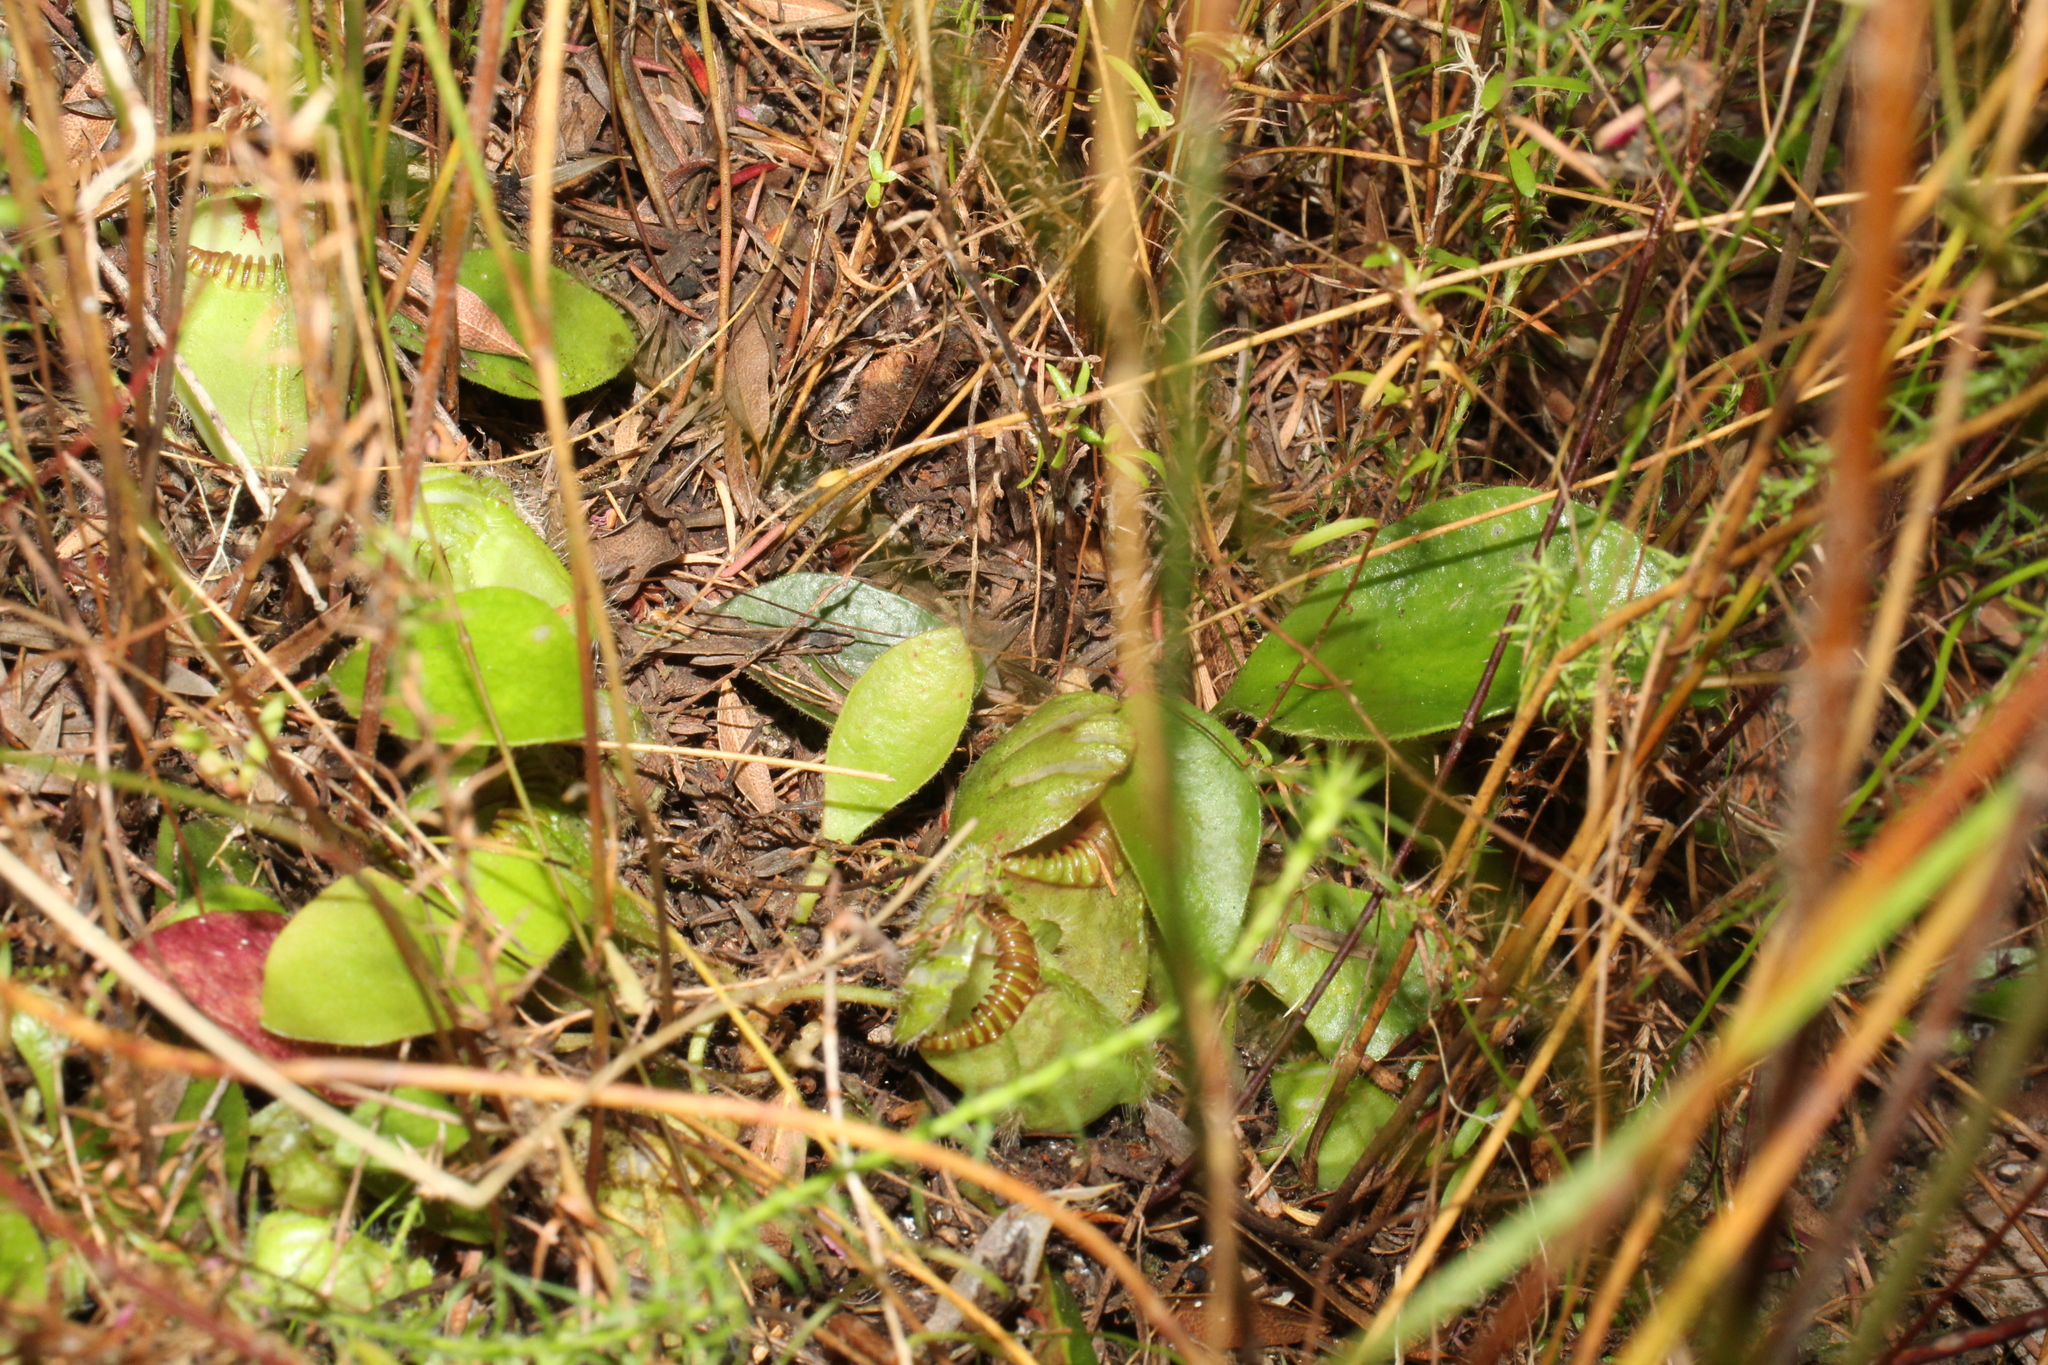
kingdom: Plantae
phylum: Tracheophyta
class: Magnoliopsida
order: Oxalidales
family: Cephalotaceae
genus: Cephalotus
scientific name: Cephalotus follicularis
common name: Australian pitcher plant
